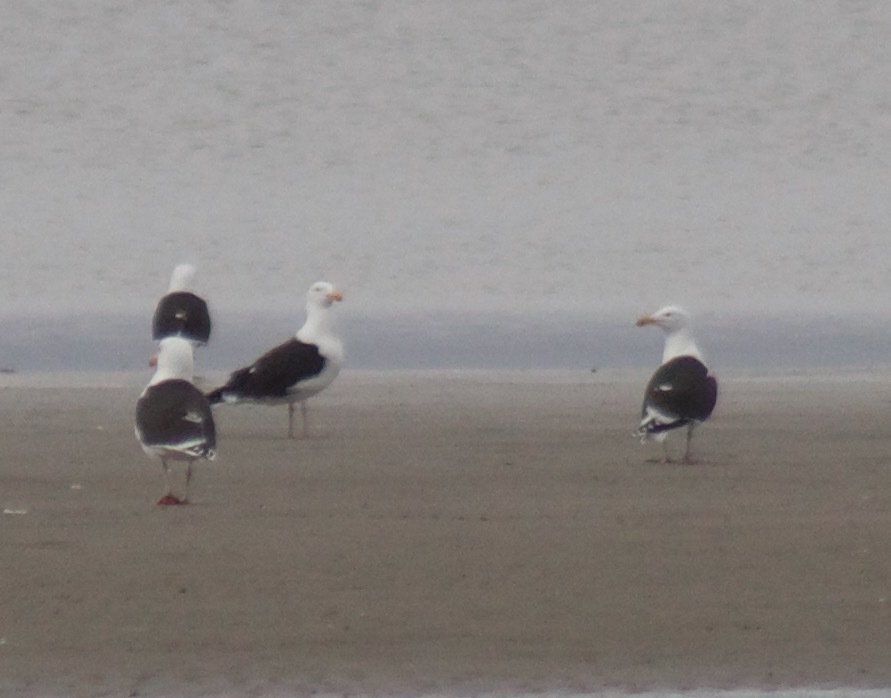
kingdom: Animalia
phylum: Chordata
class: Aves
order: Charadriiformes
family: Laridae
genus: Larus
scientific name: Larus marinus
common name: Great black-backed gull
